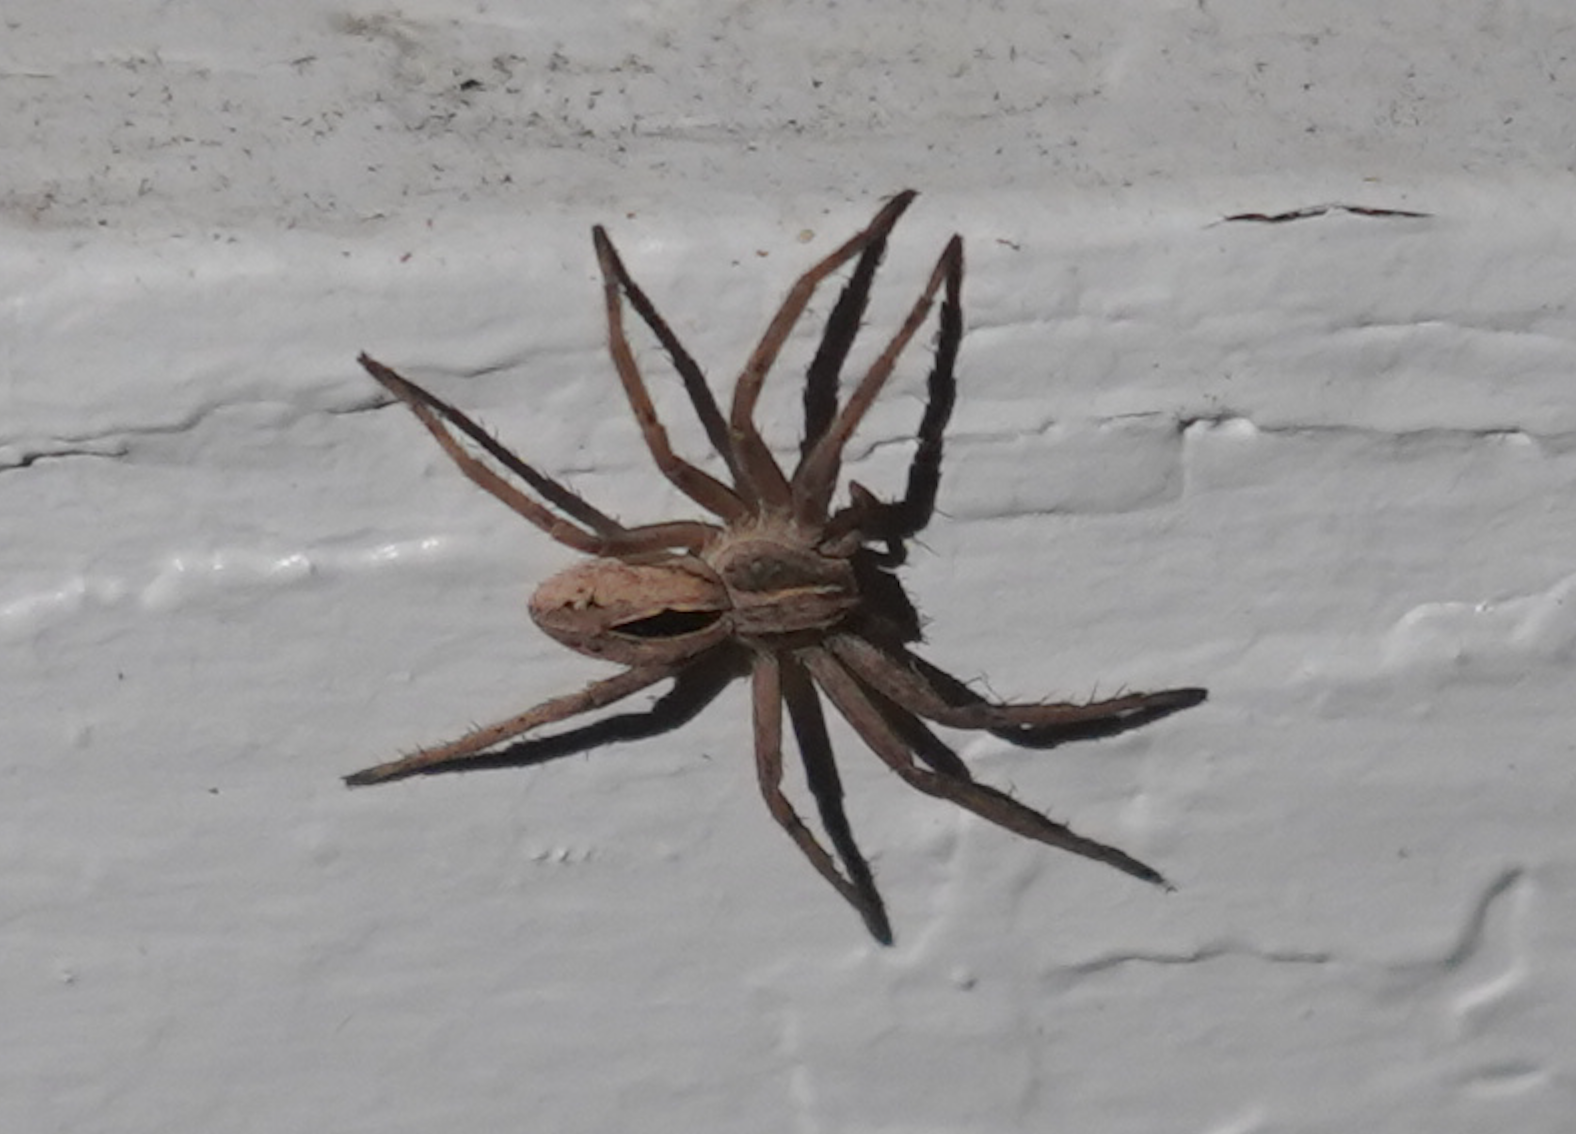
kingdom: Animalia
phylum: Arthropoda
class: Arachnida
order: Araneae
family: Philodromidae
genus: Thanatus
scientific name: Thanatus formicinus
